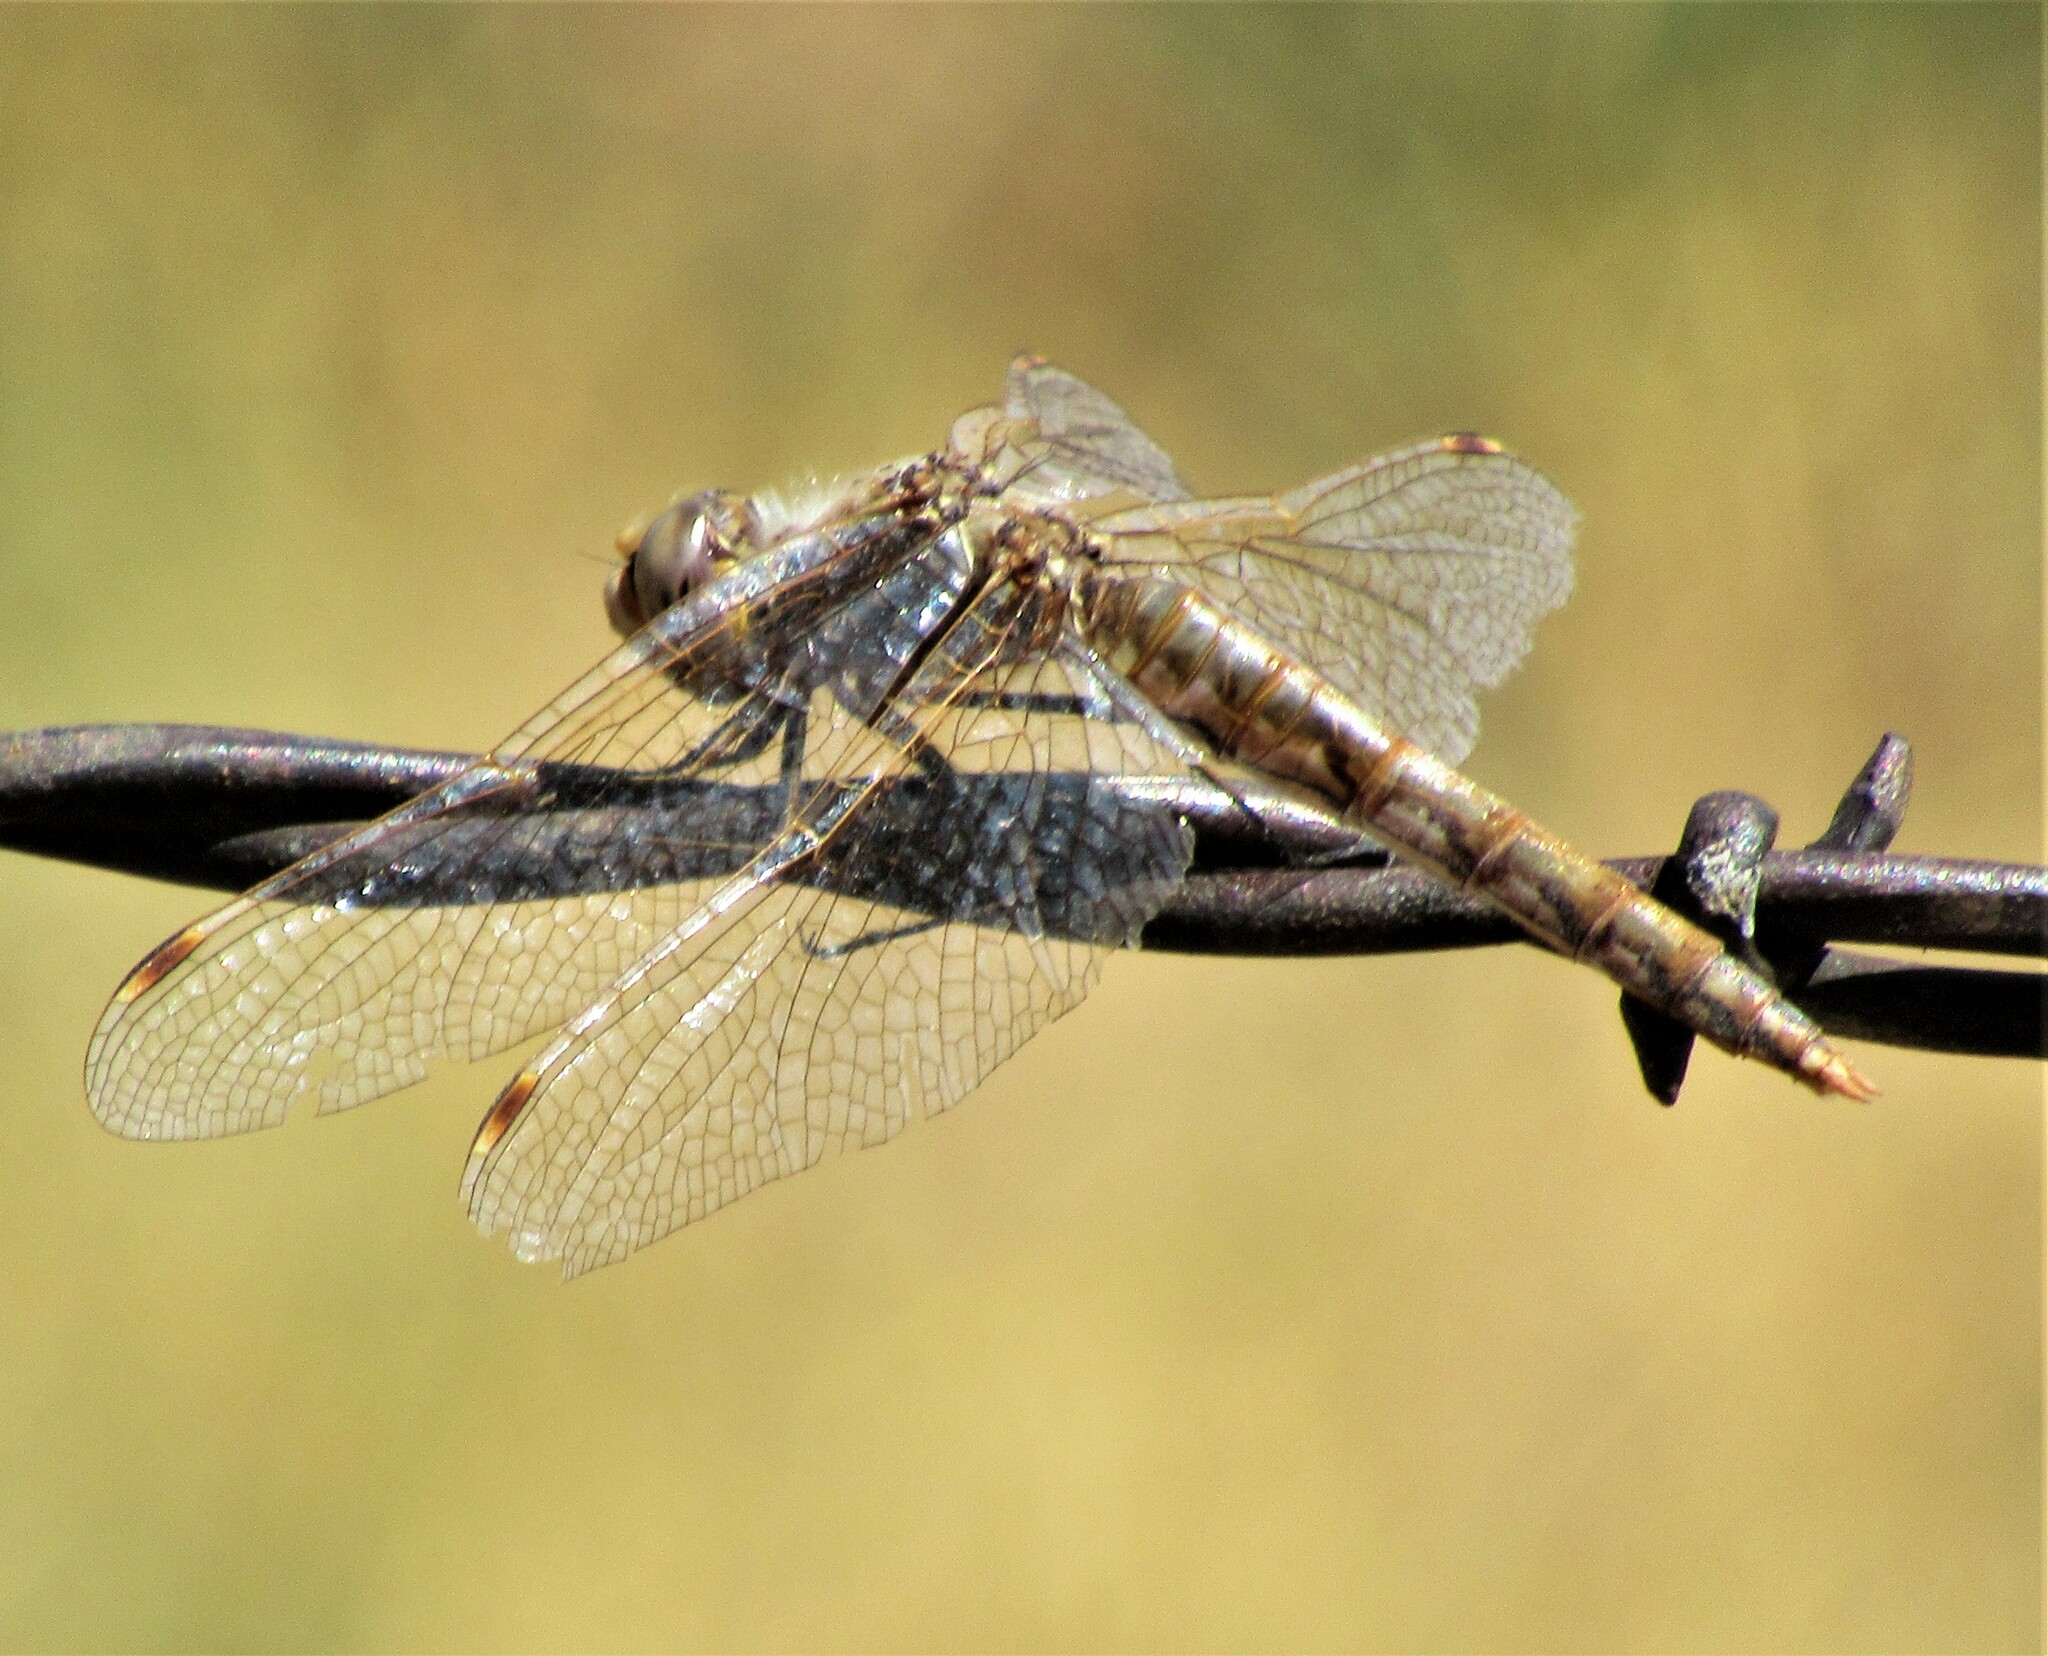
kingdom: Animalia
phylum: Arthropoda
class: Insecta
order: Odonata
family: Libellulidae
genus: Sympetrum
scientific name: Sympetrum corruptum
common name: Variegated meadowhawk
